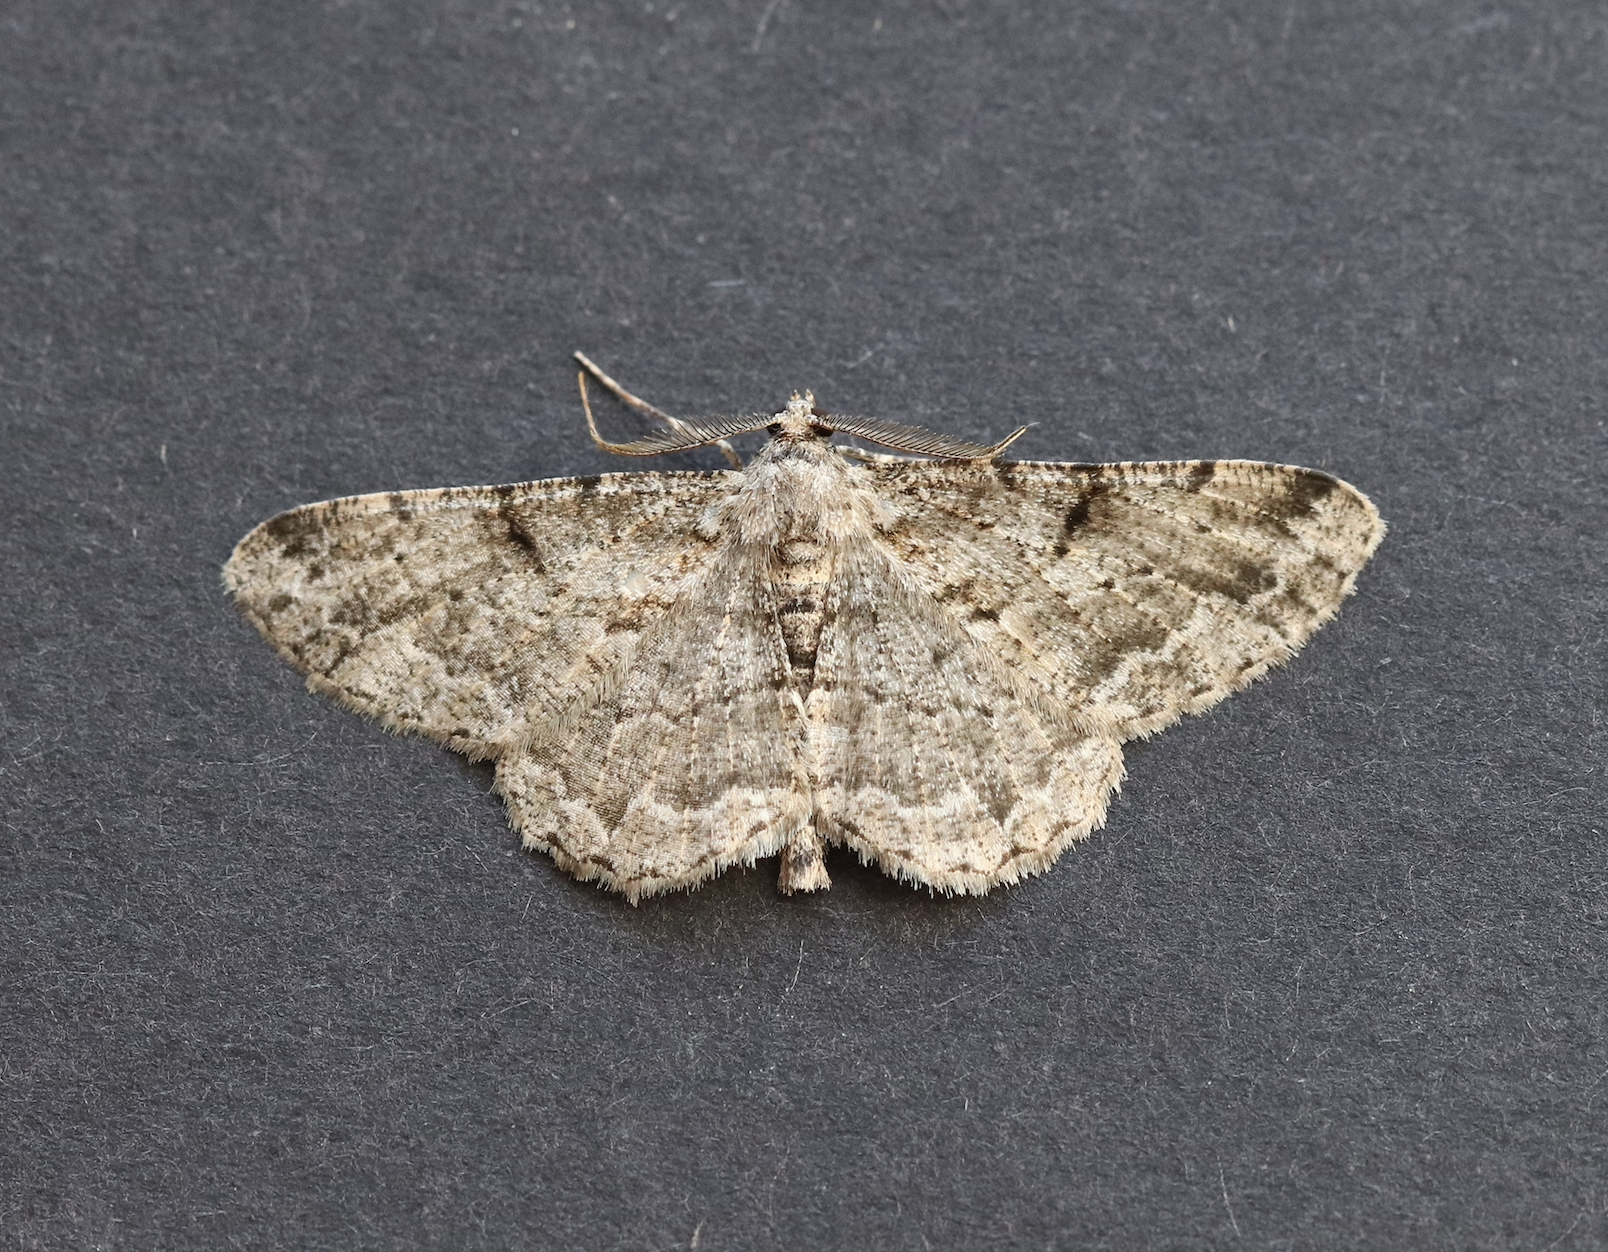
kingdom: Animalia
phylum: Arthropoda
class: Insecta
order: Lepidoptera
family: Geometridae
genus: Peribatodes
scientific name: Peribatodes rhomboidaria
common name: Willow beauty
